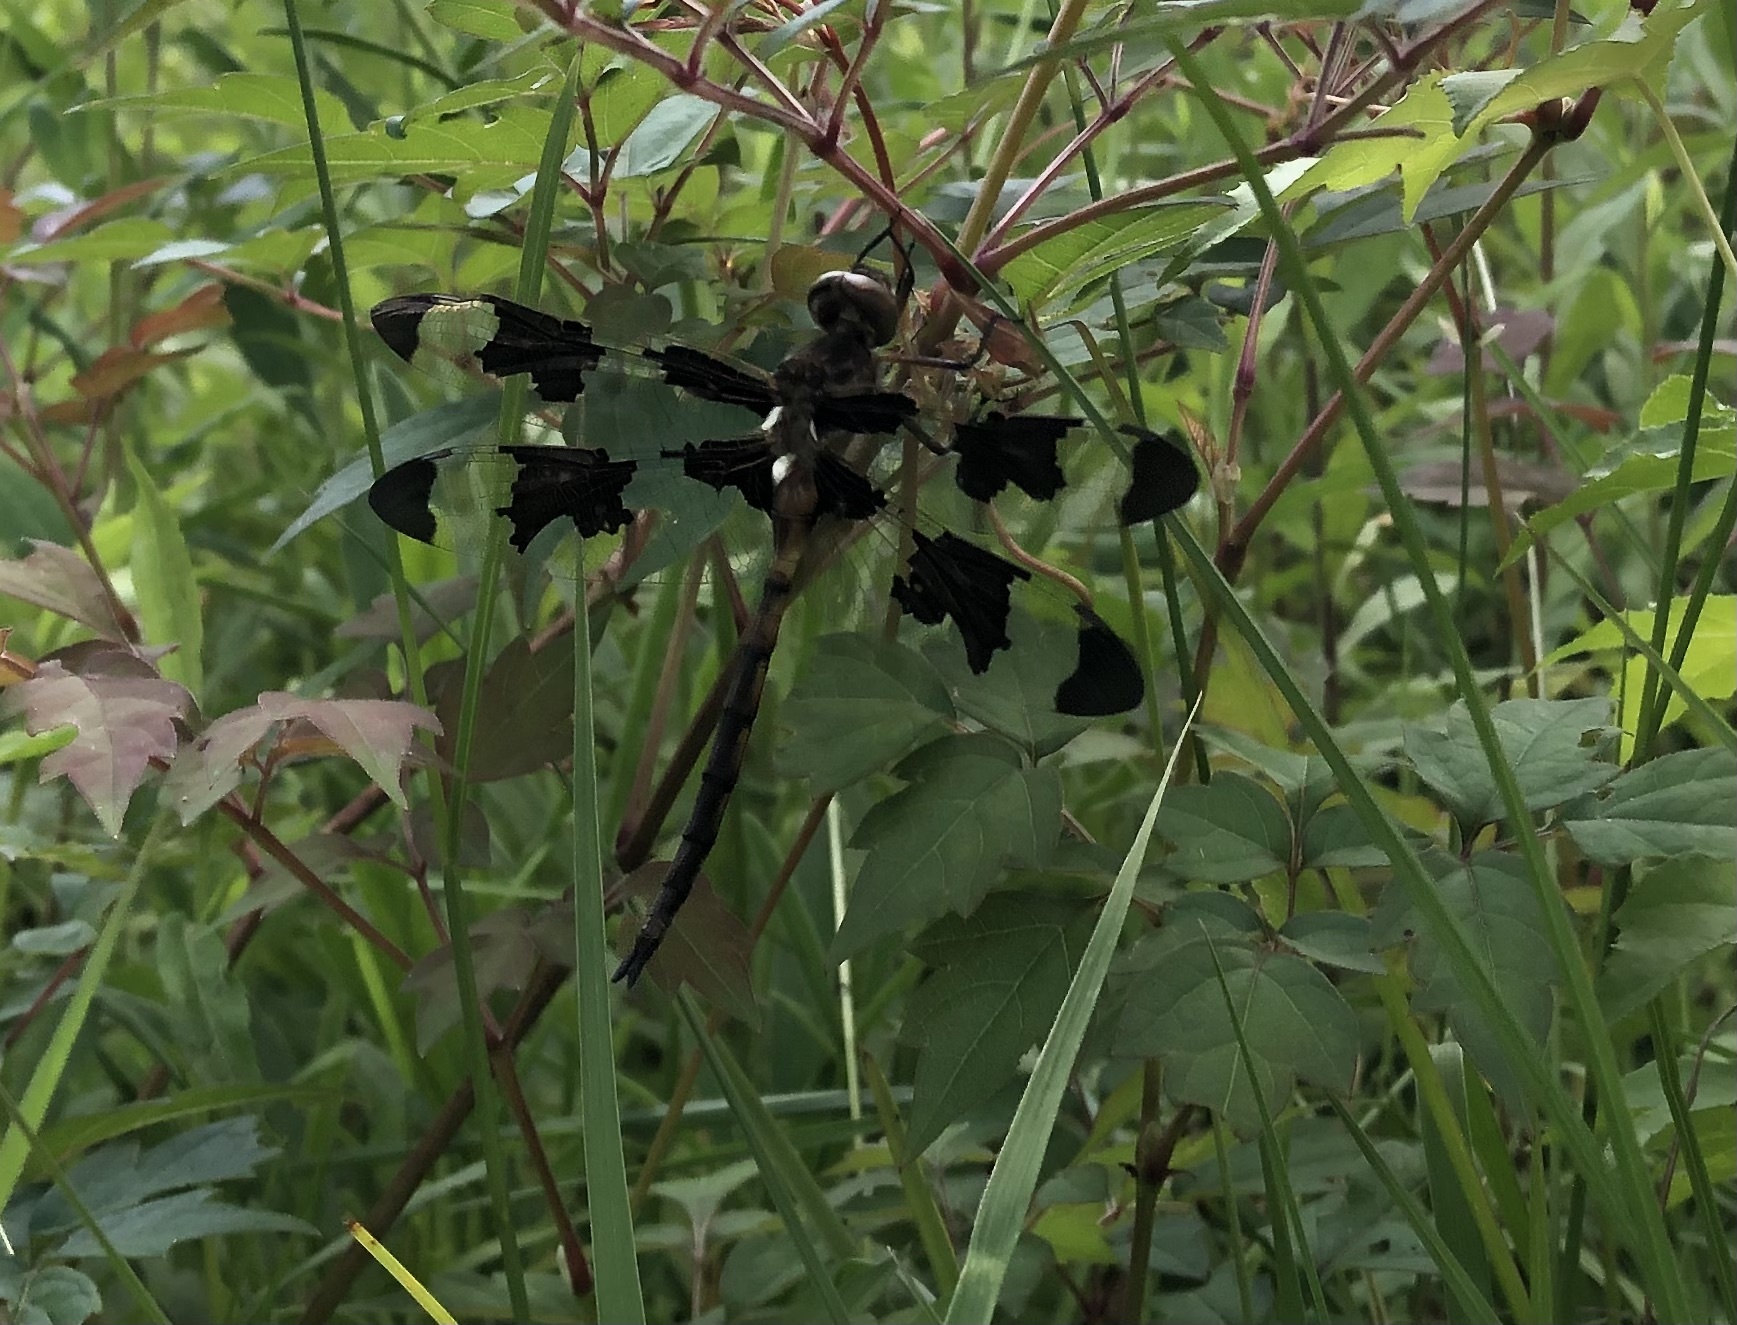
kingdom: Animalia
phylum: Arthropoda
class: Insecta
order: Odonata
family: Corduliidae
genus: Epitheca
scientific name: Epitheca princeps
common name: Prince baskettail
